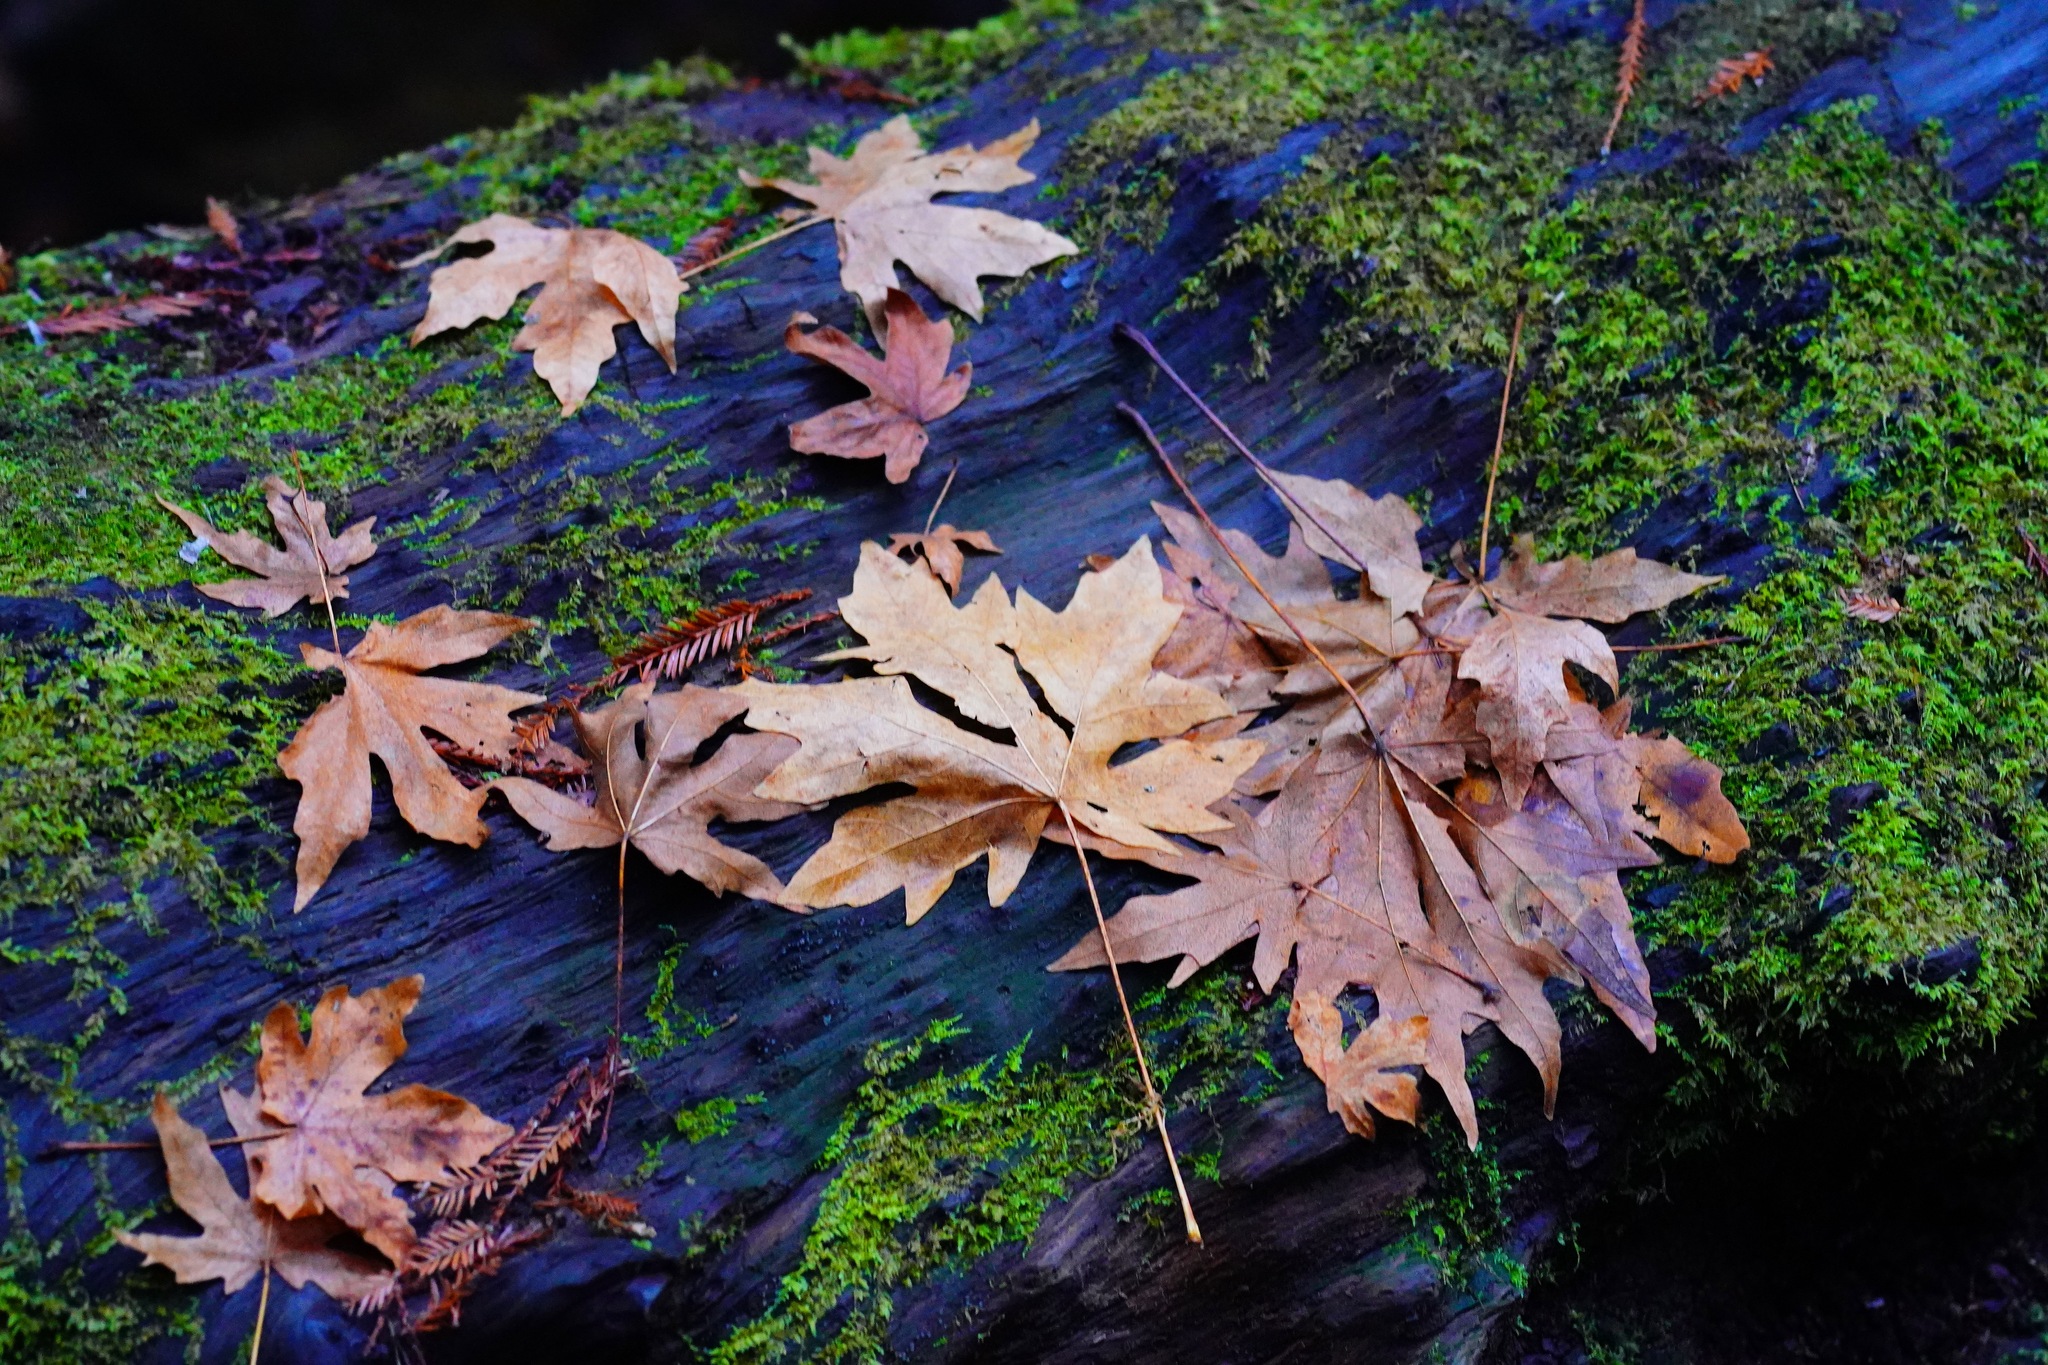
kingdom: Plantae
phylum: Tracheophyta
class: Magnoliopsida
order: Sapindales
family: Sapindaceae
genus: Acer
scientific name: Acer macrophyllum
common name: Oregon maple
